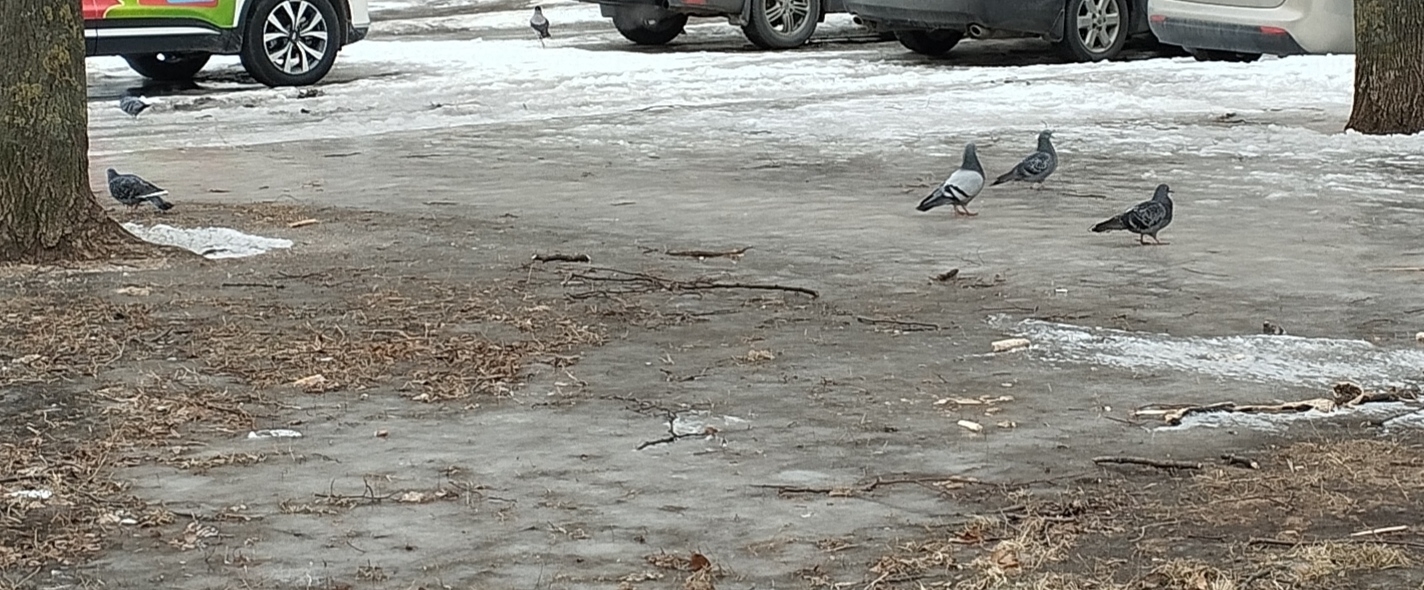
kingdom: Animalia
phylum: Chordata
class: Aves
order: Columbiformes
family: Columbidae
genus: Columba
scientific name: Columba livia
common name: Rock pigeon
